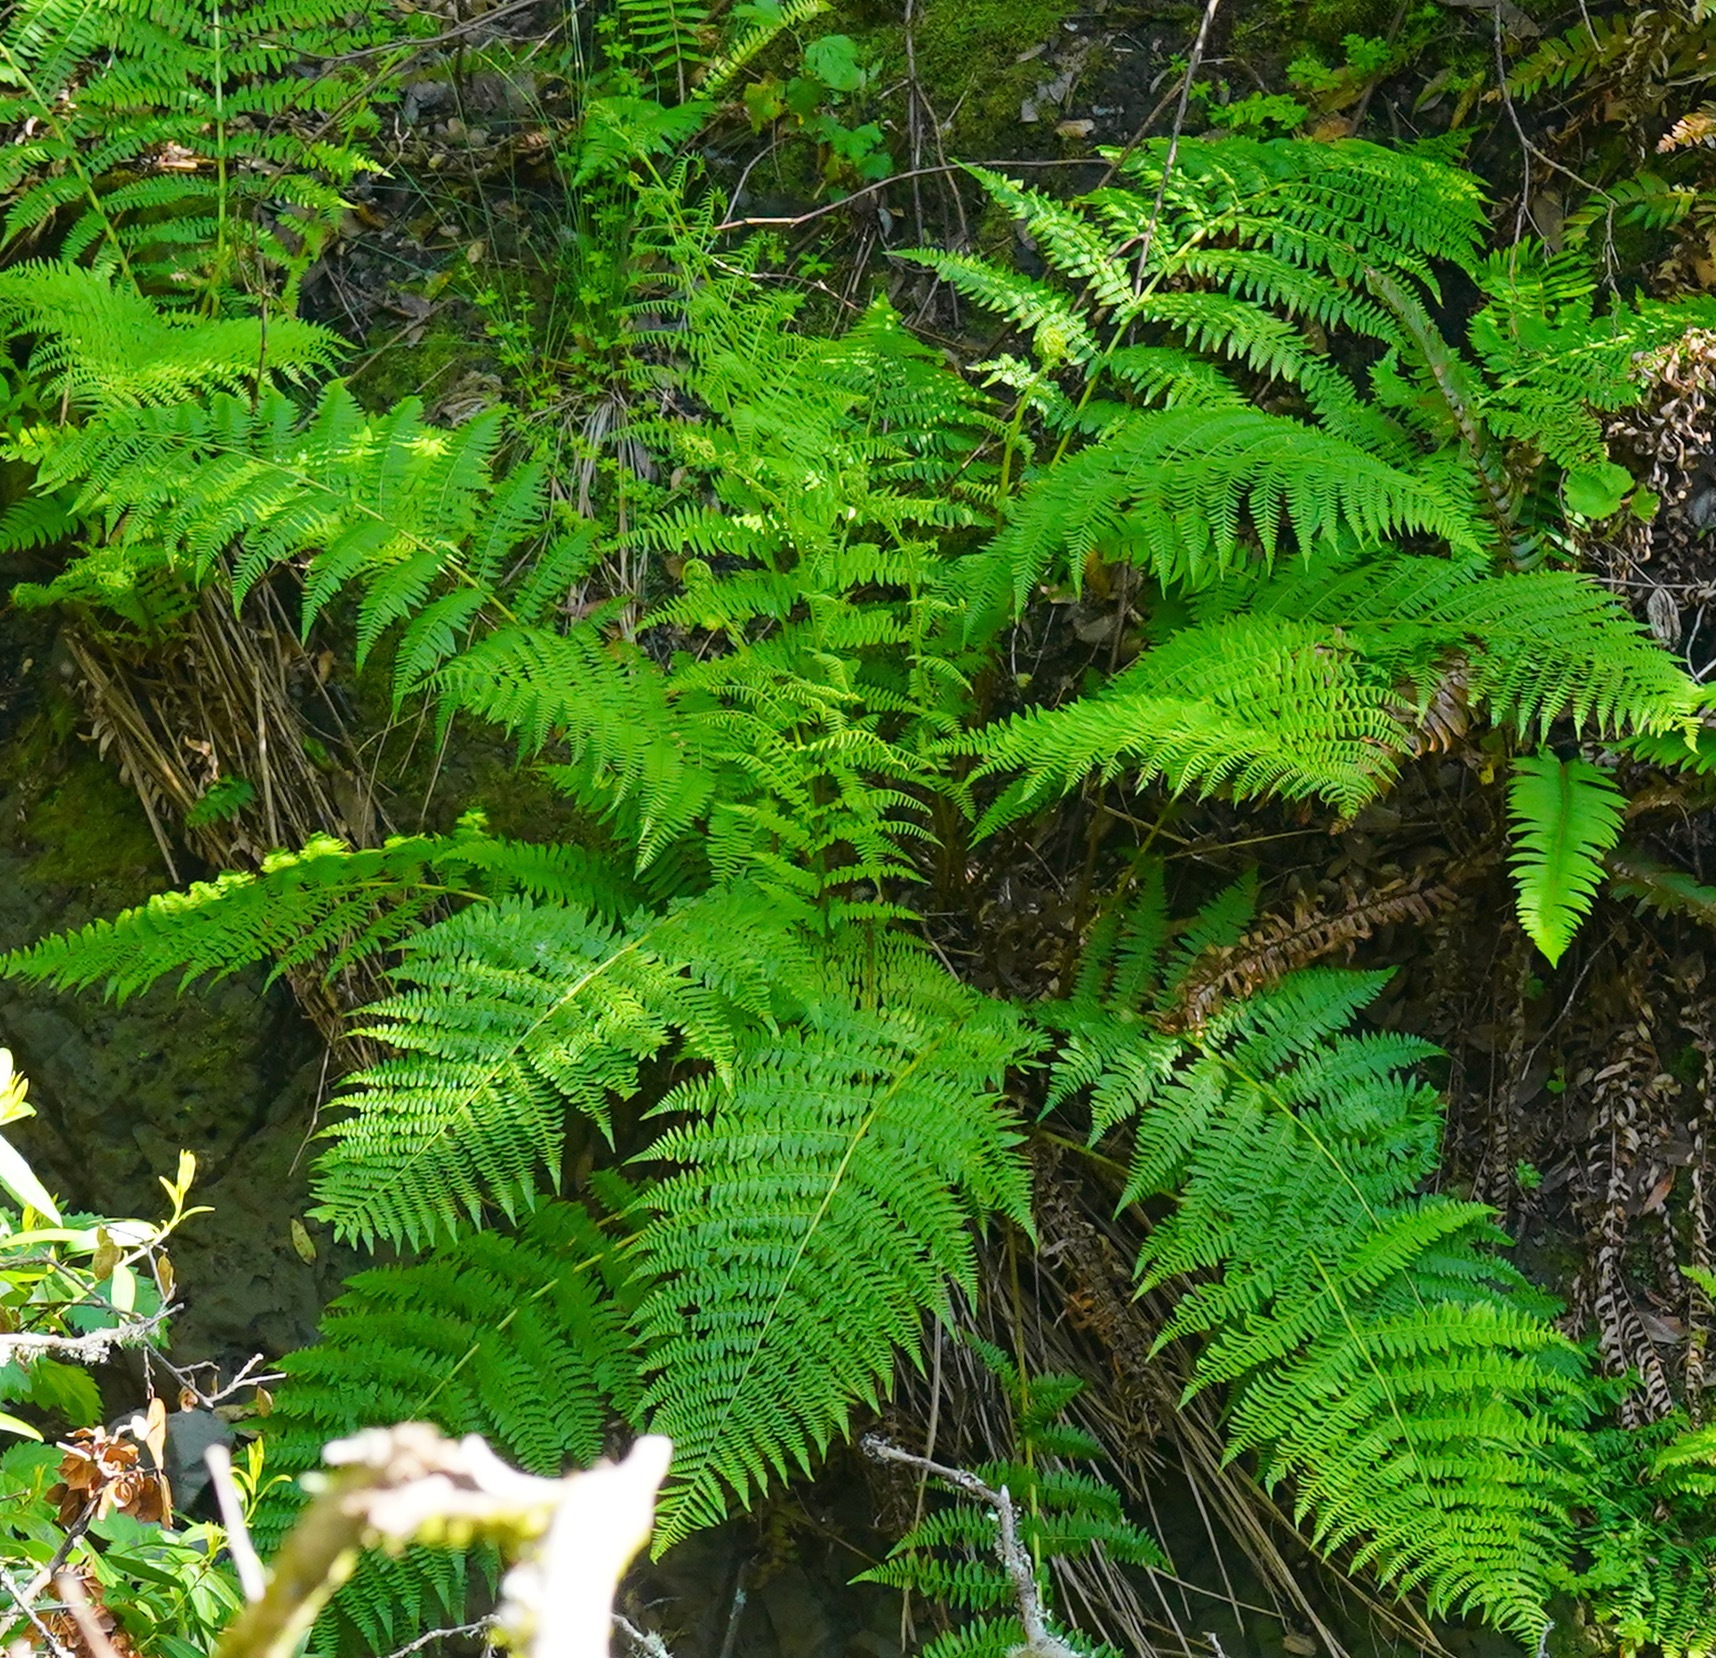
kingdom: Plantae
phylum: Tracheophyta
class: Polypodiopsida
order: Polypodiales
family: Athyriaceae
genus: Athyrium
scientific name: Athyrium filix-femina
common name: Lady fern
